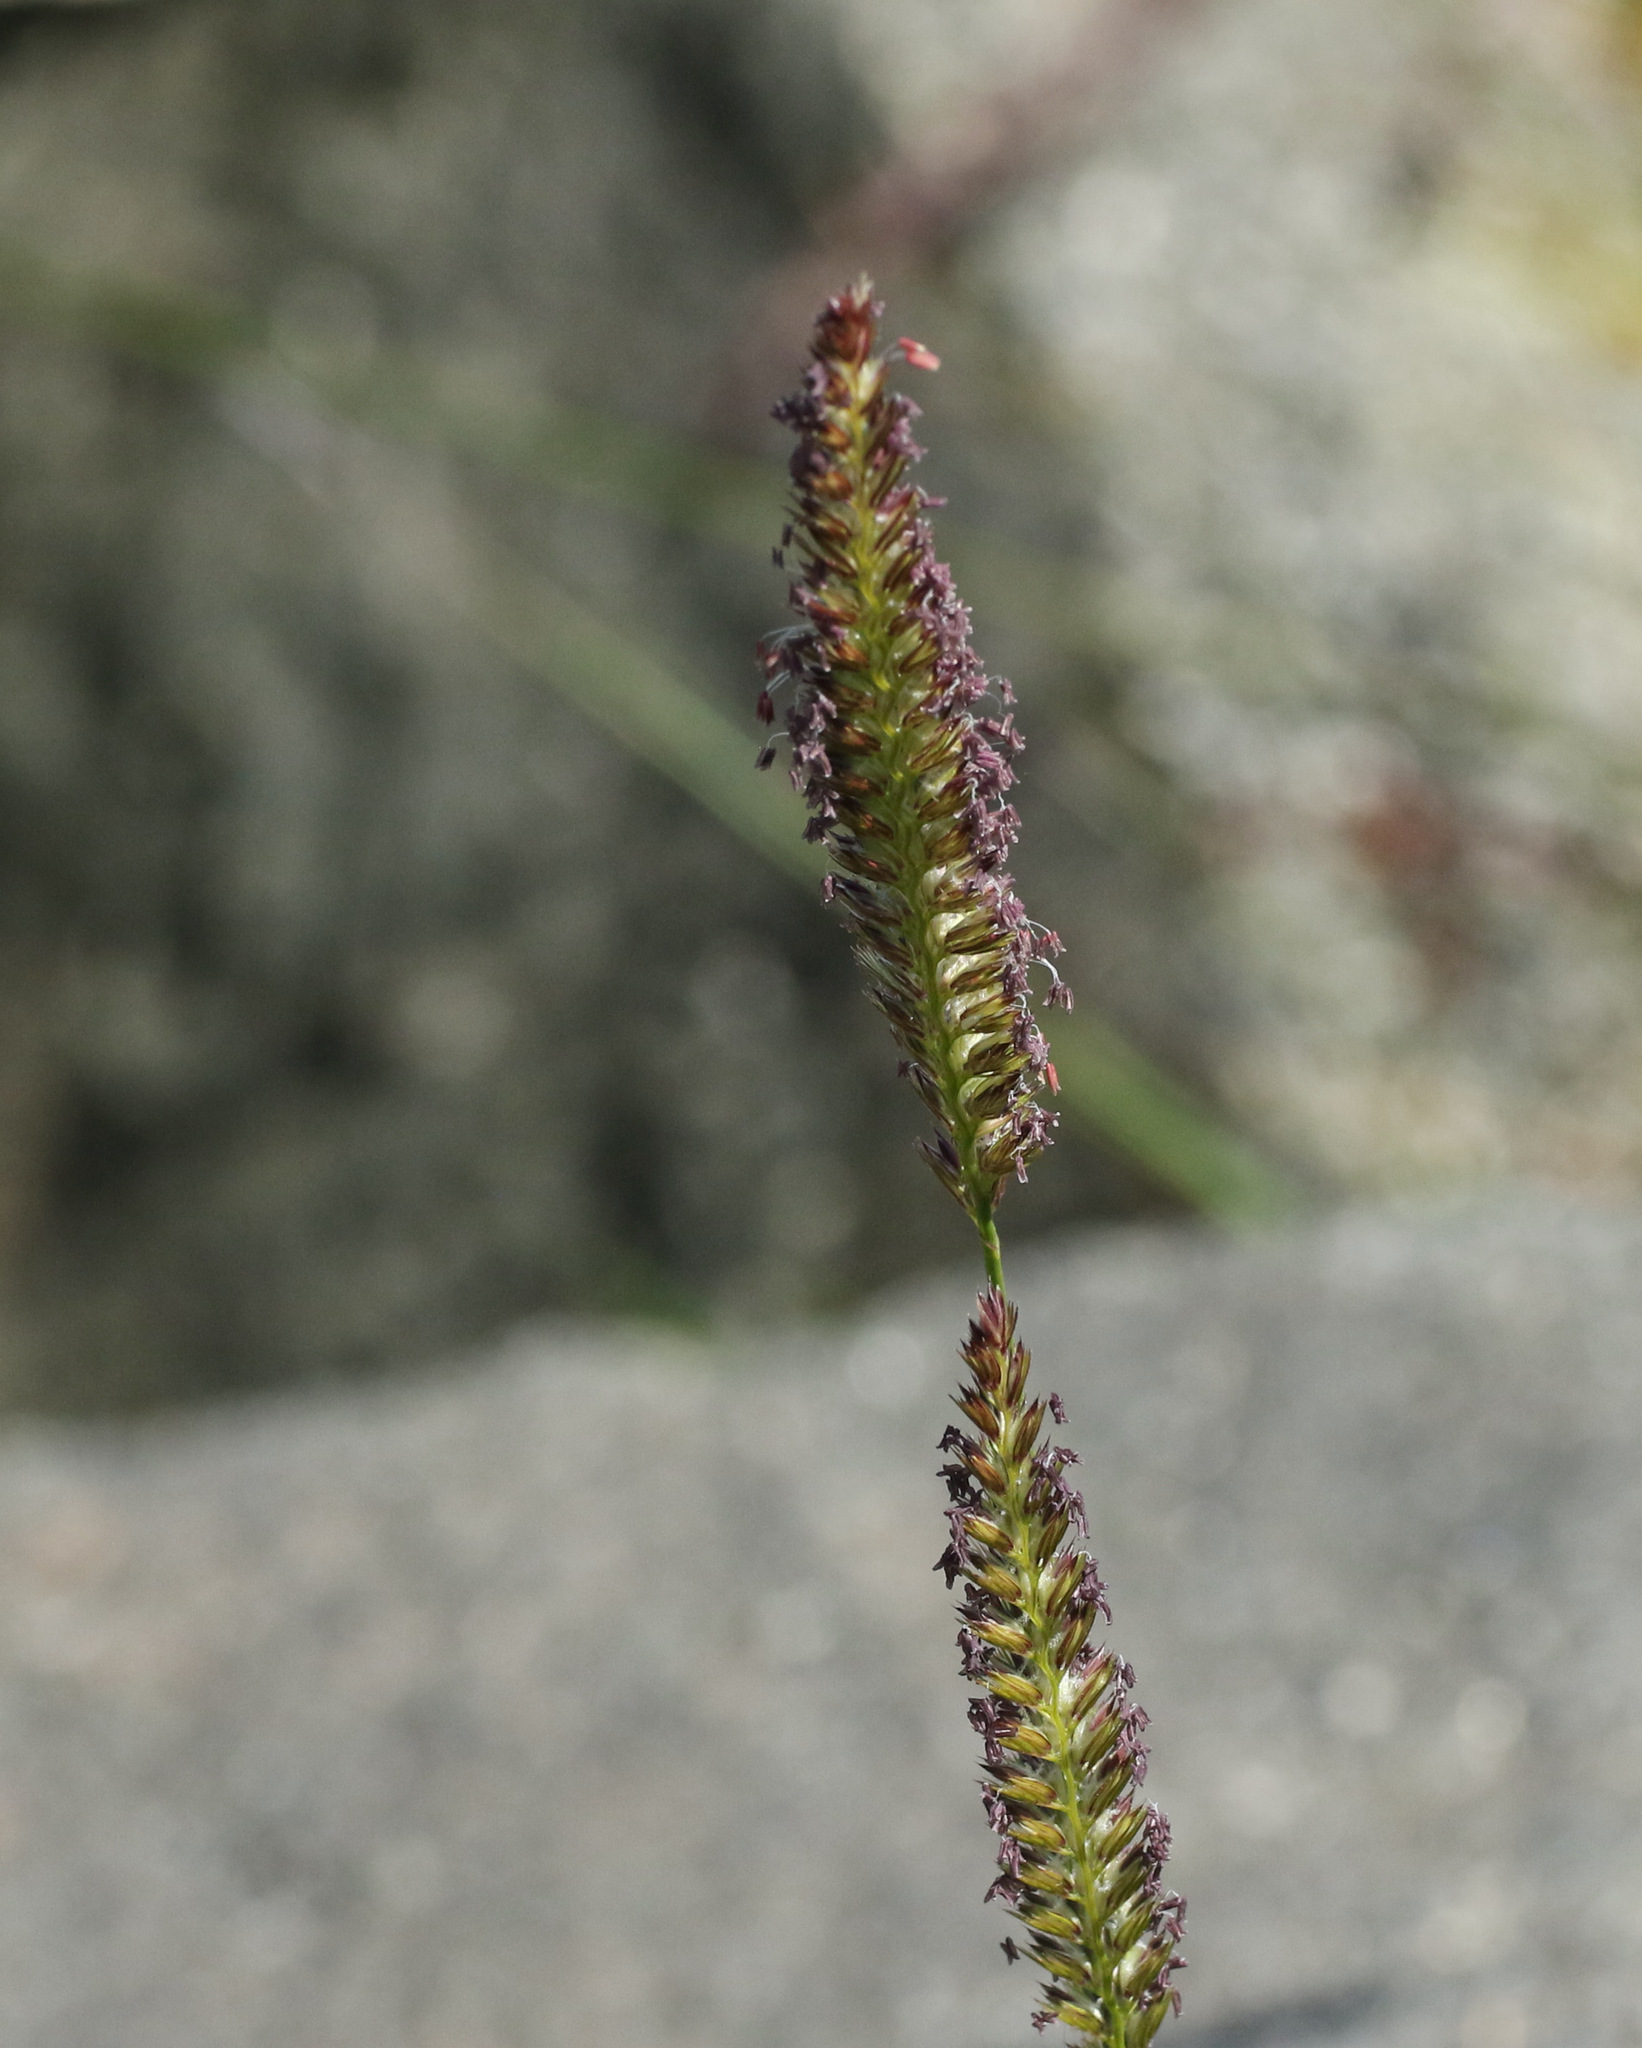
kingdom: Plantae
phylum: Tracheophyta
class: Liliopsida
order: Poales
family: Poaceae
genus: Cynosurus
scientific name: Cynosurus cristatus
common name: Crested dog's-tail
